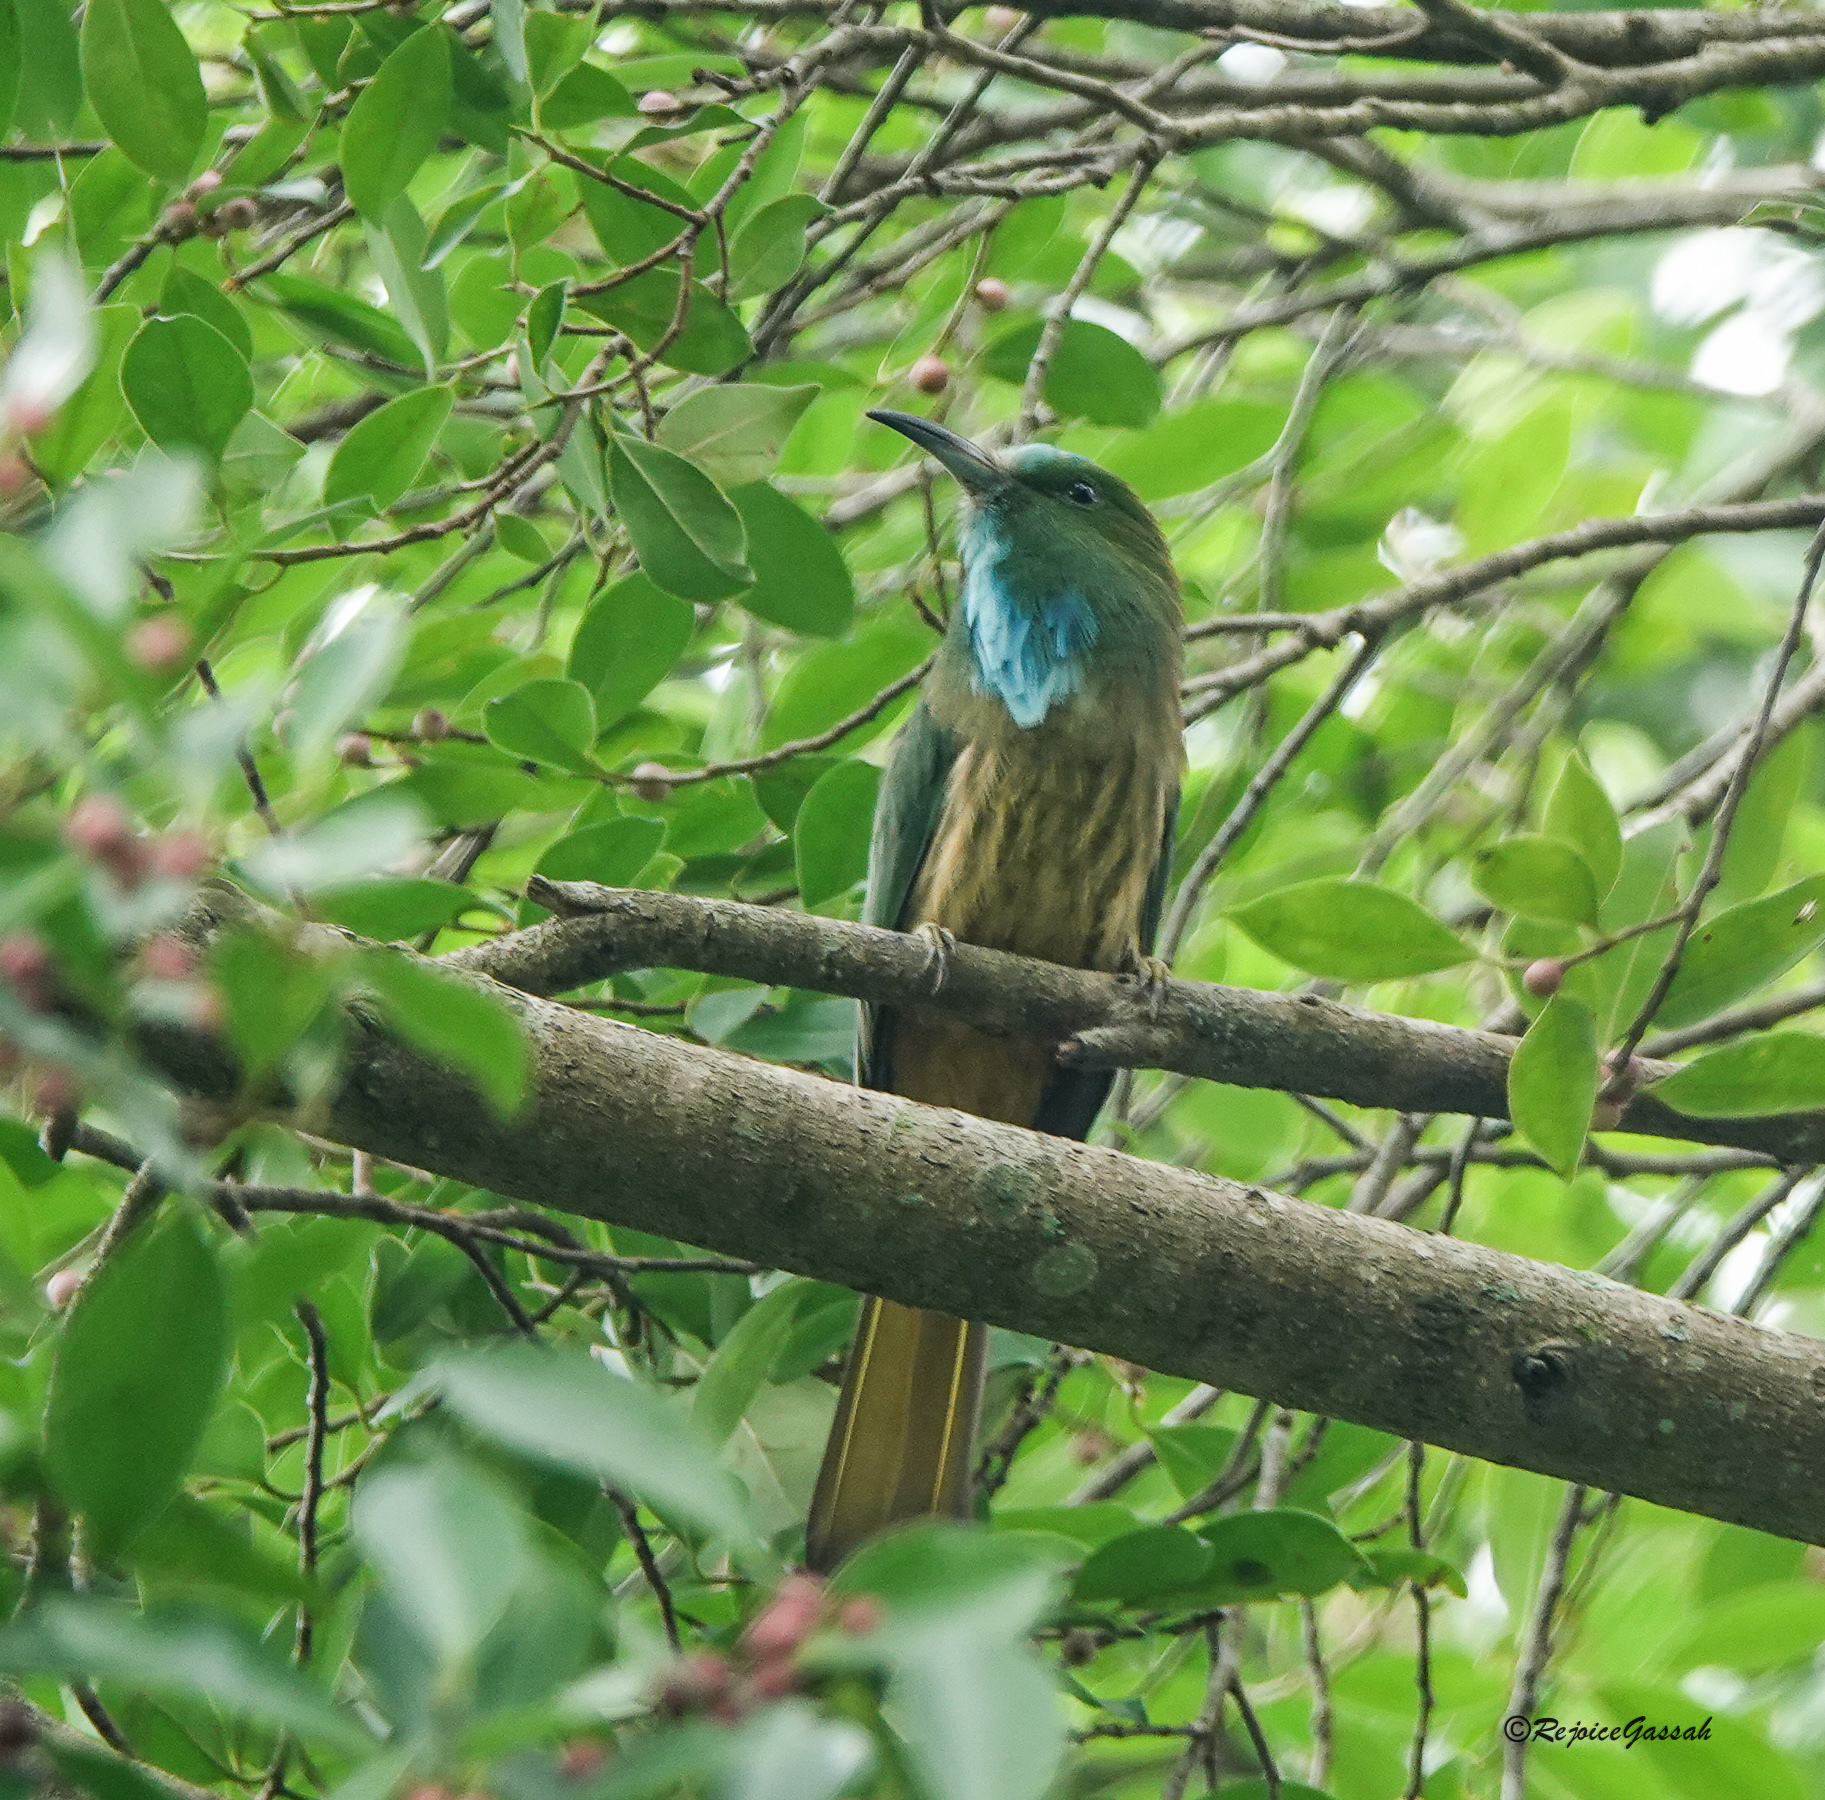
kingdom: Animalia
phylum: Chordata
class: Aves
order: Coraciiformes
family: Meropidae
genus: Nyctyornis
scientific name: Nyctyornis athertoni
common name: Blue-bearded bee-eater
